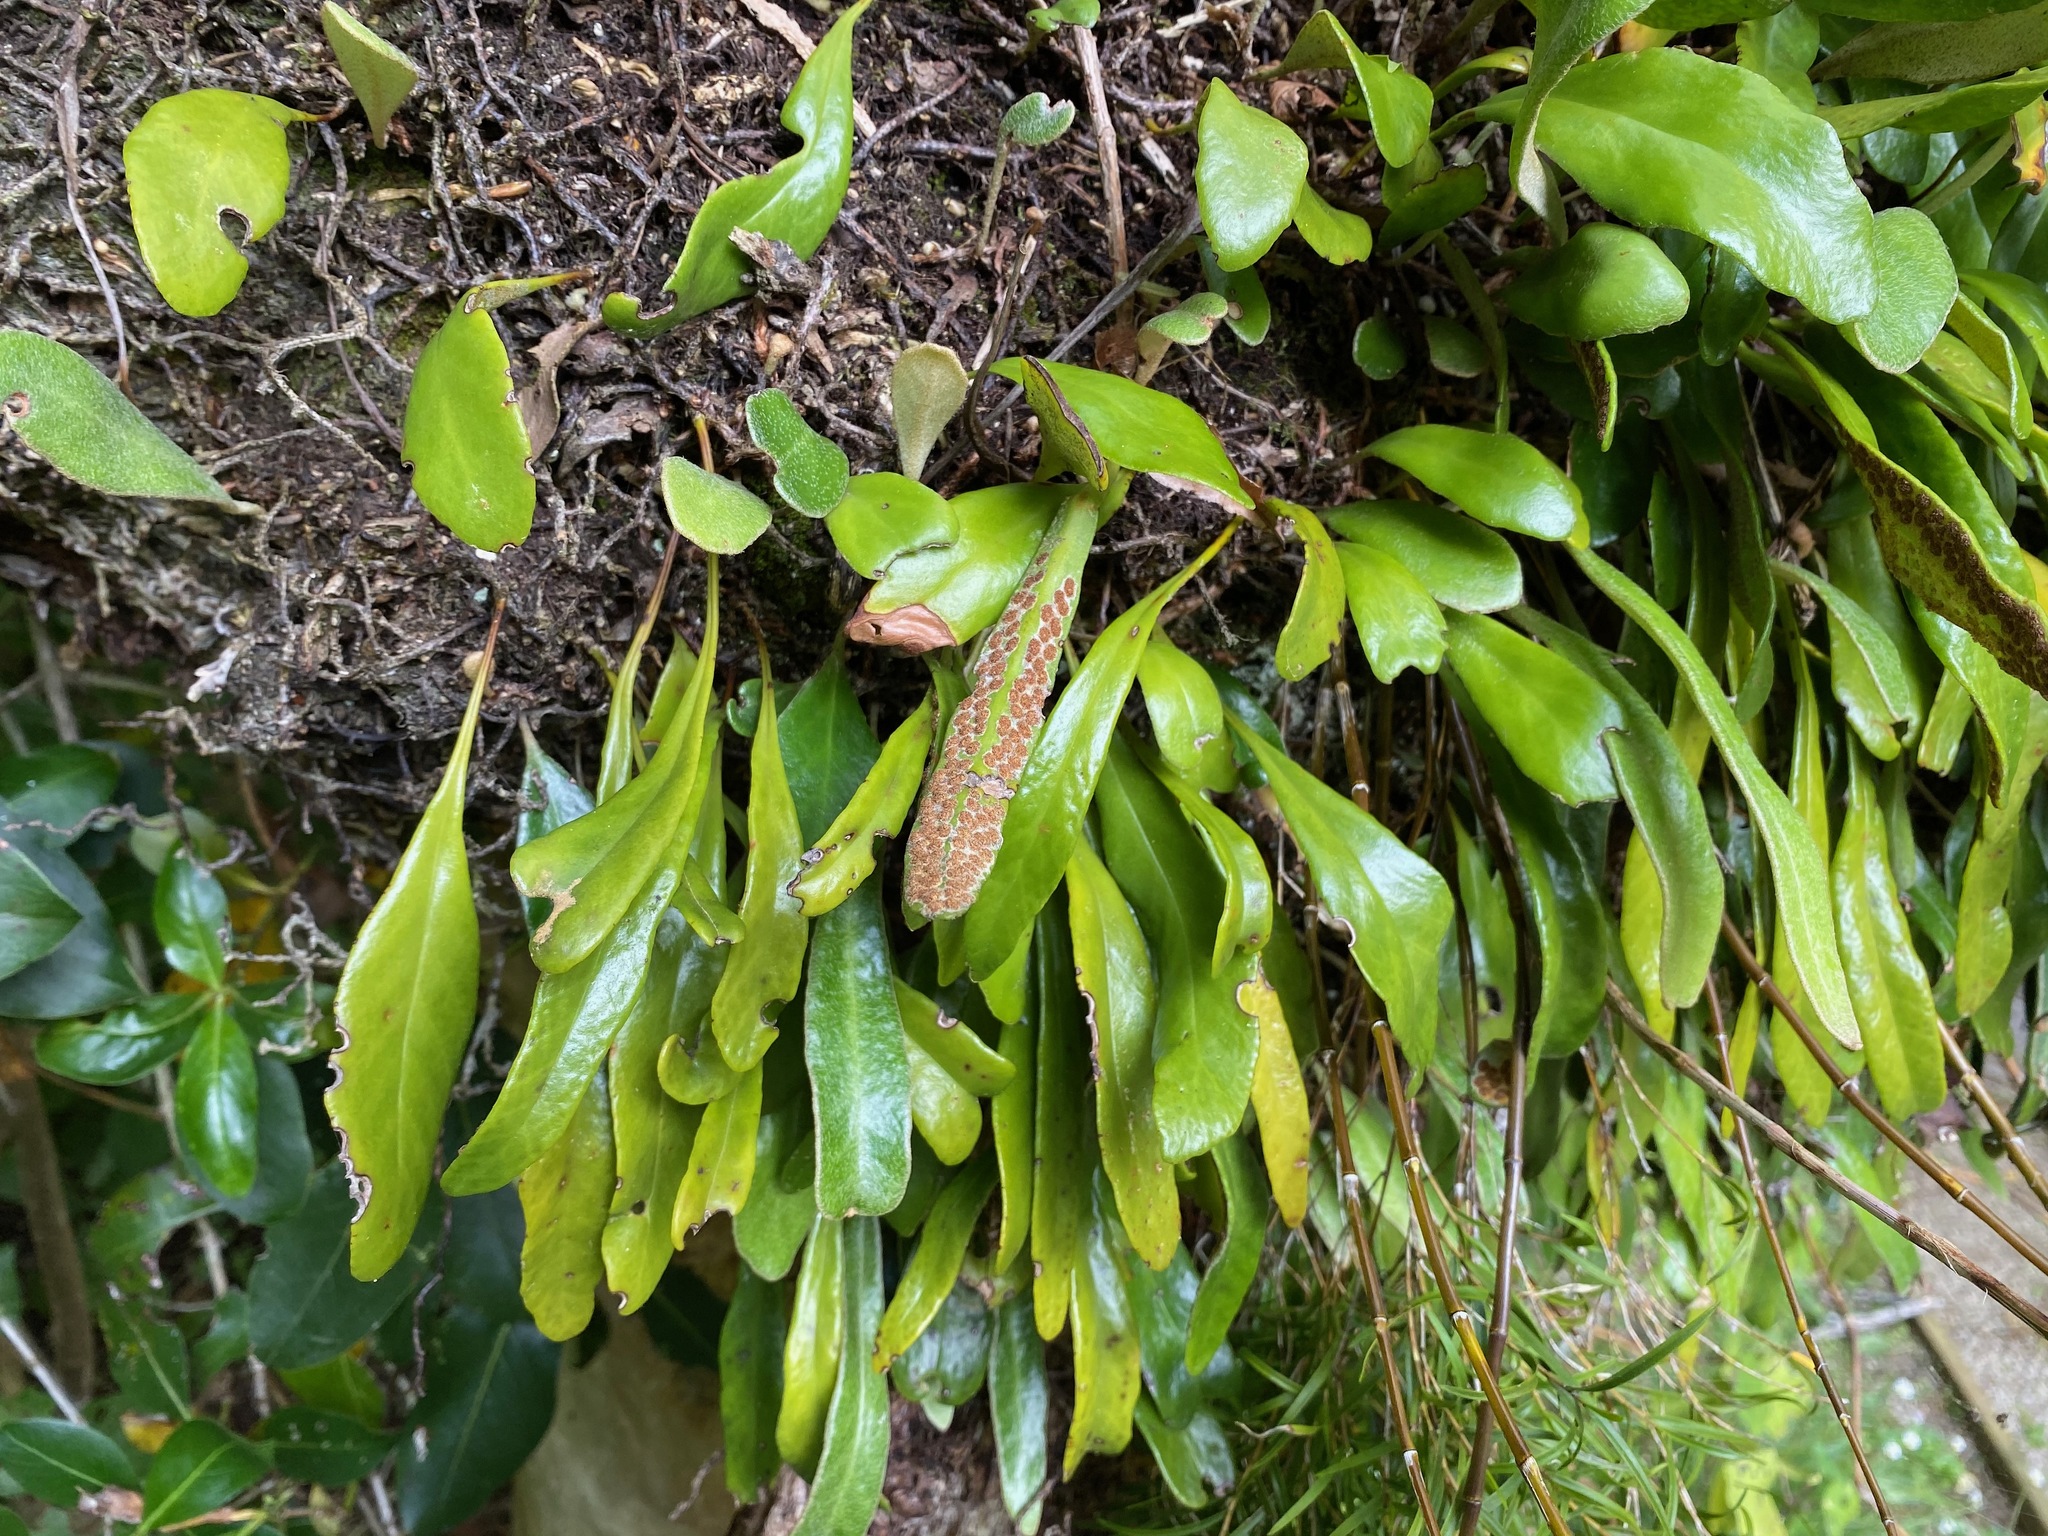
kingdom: Plantae
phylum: Tracheophyta
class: Polypodiopsida
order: Polypodiales
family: Polypodiaceae
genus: Pyrrosia
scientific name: Pyrrosia eleagnifolia
